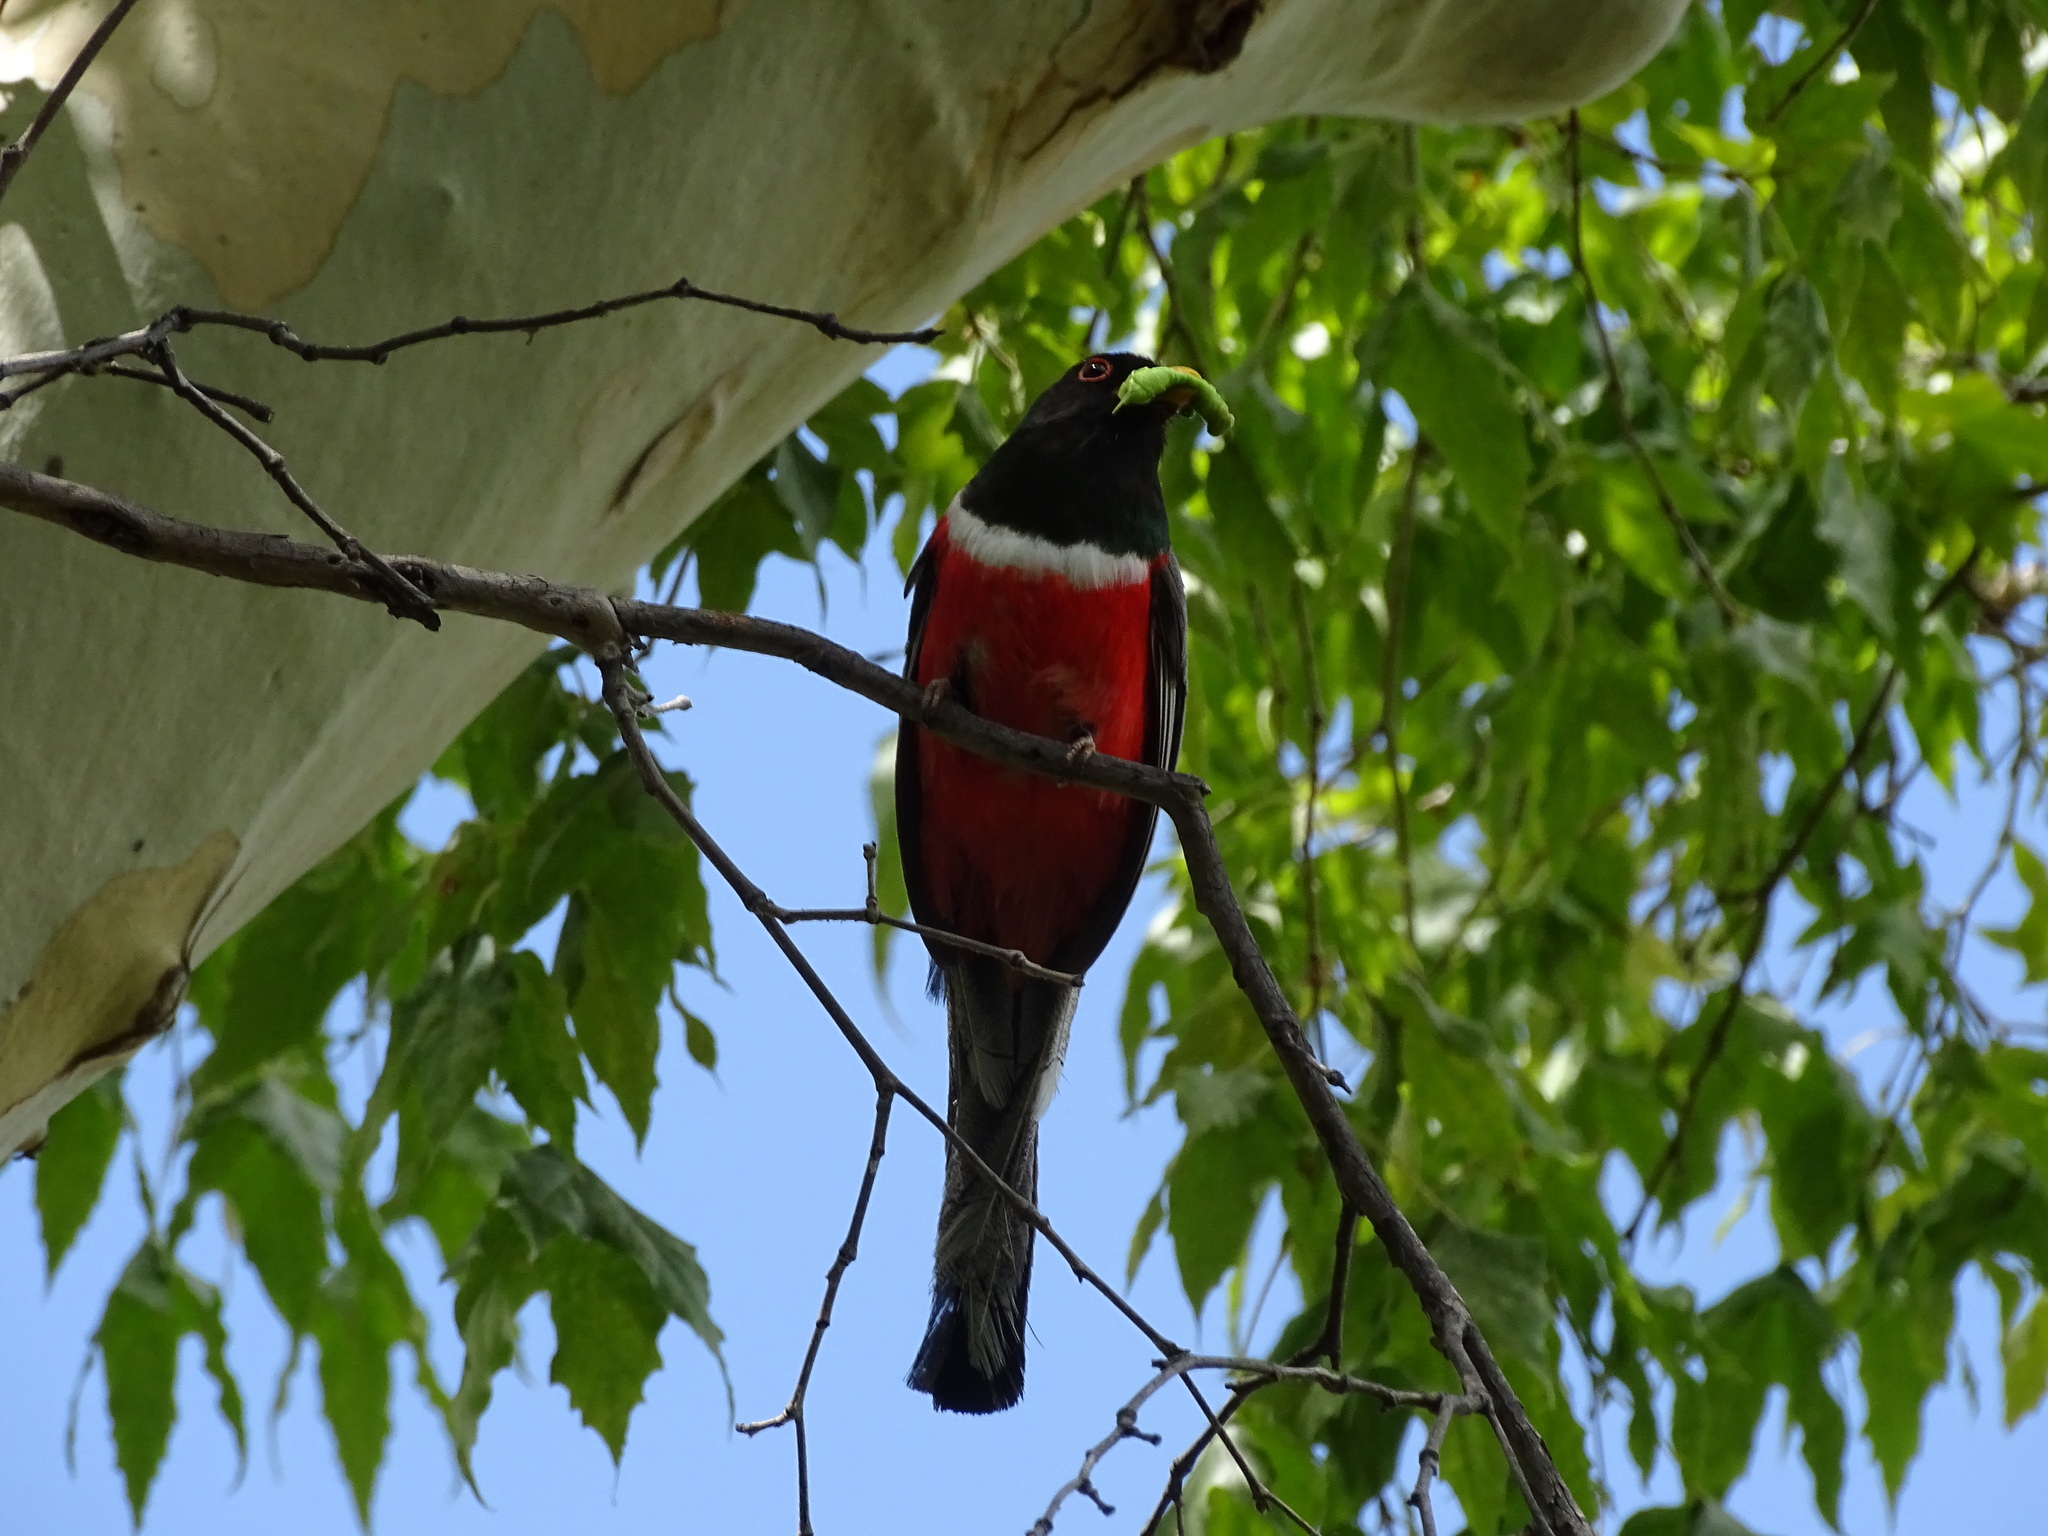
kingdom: Animalia
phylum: Chordata
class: Aves
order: Trogoniformes
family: Trogonidae
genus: Trogon
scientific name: Trogon elegans
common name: Elegant trogon
